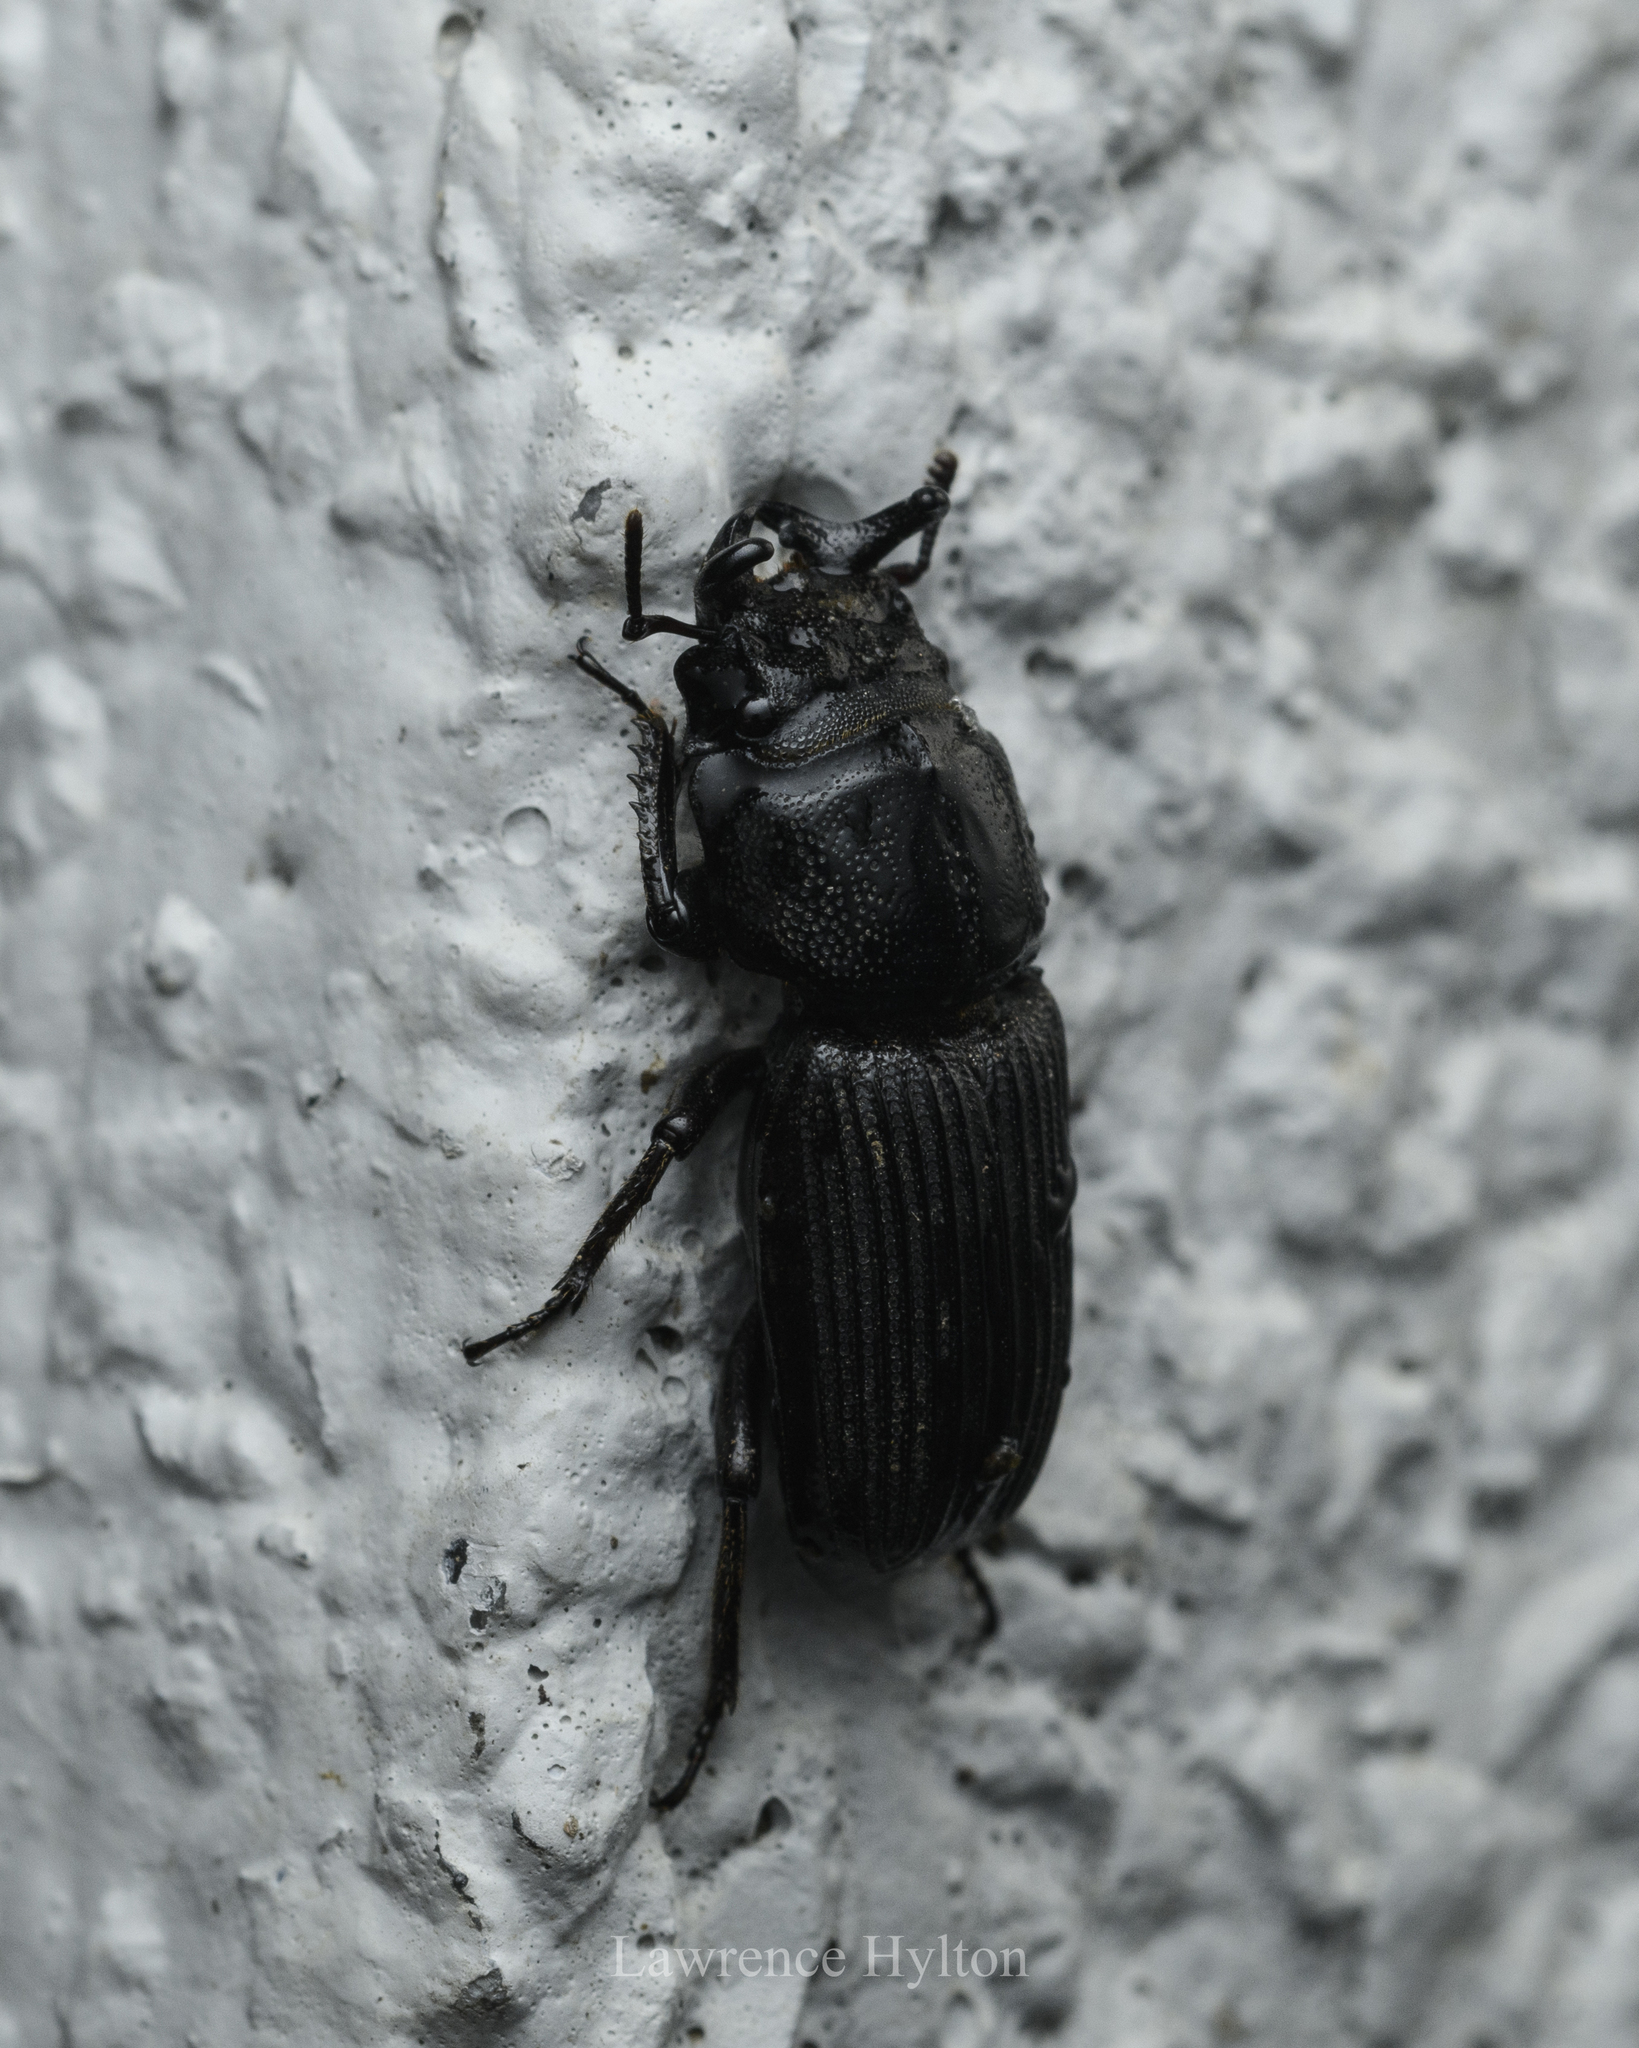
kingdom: Animalia
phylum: Arthropoda
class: Insecta
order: Coleoptera
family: Lucanidae
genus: Nigidius
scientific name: Nigidius sinicus
